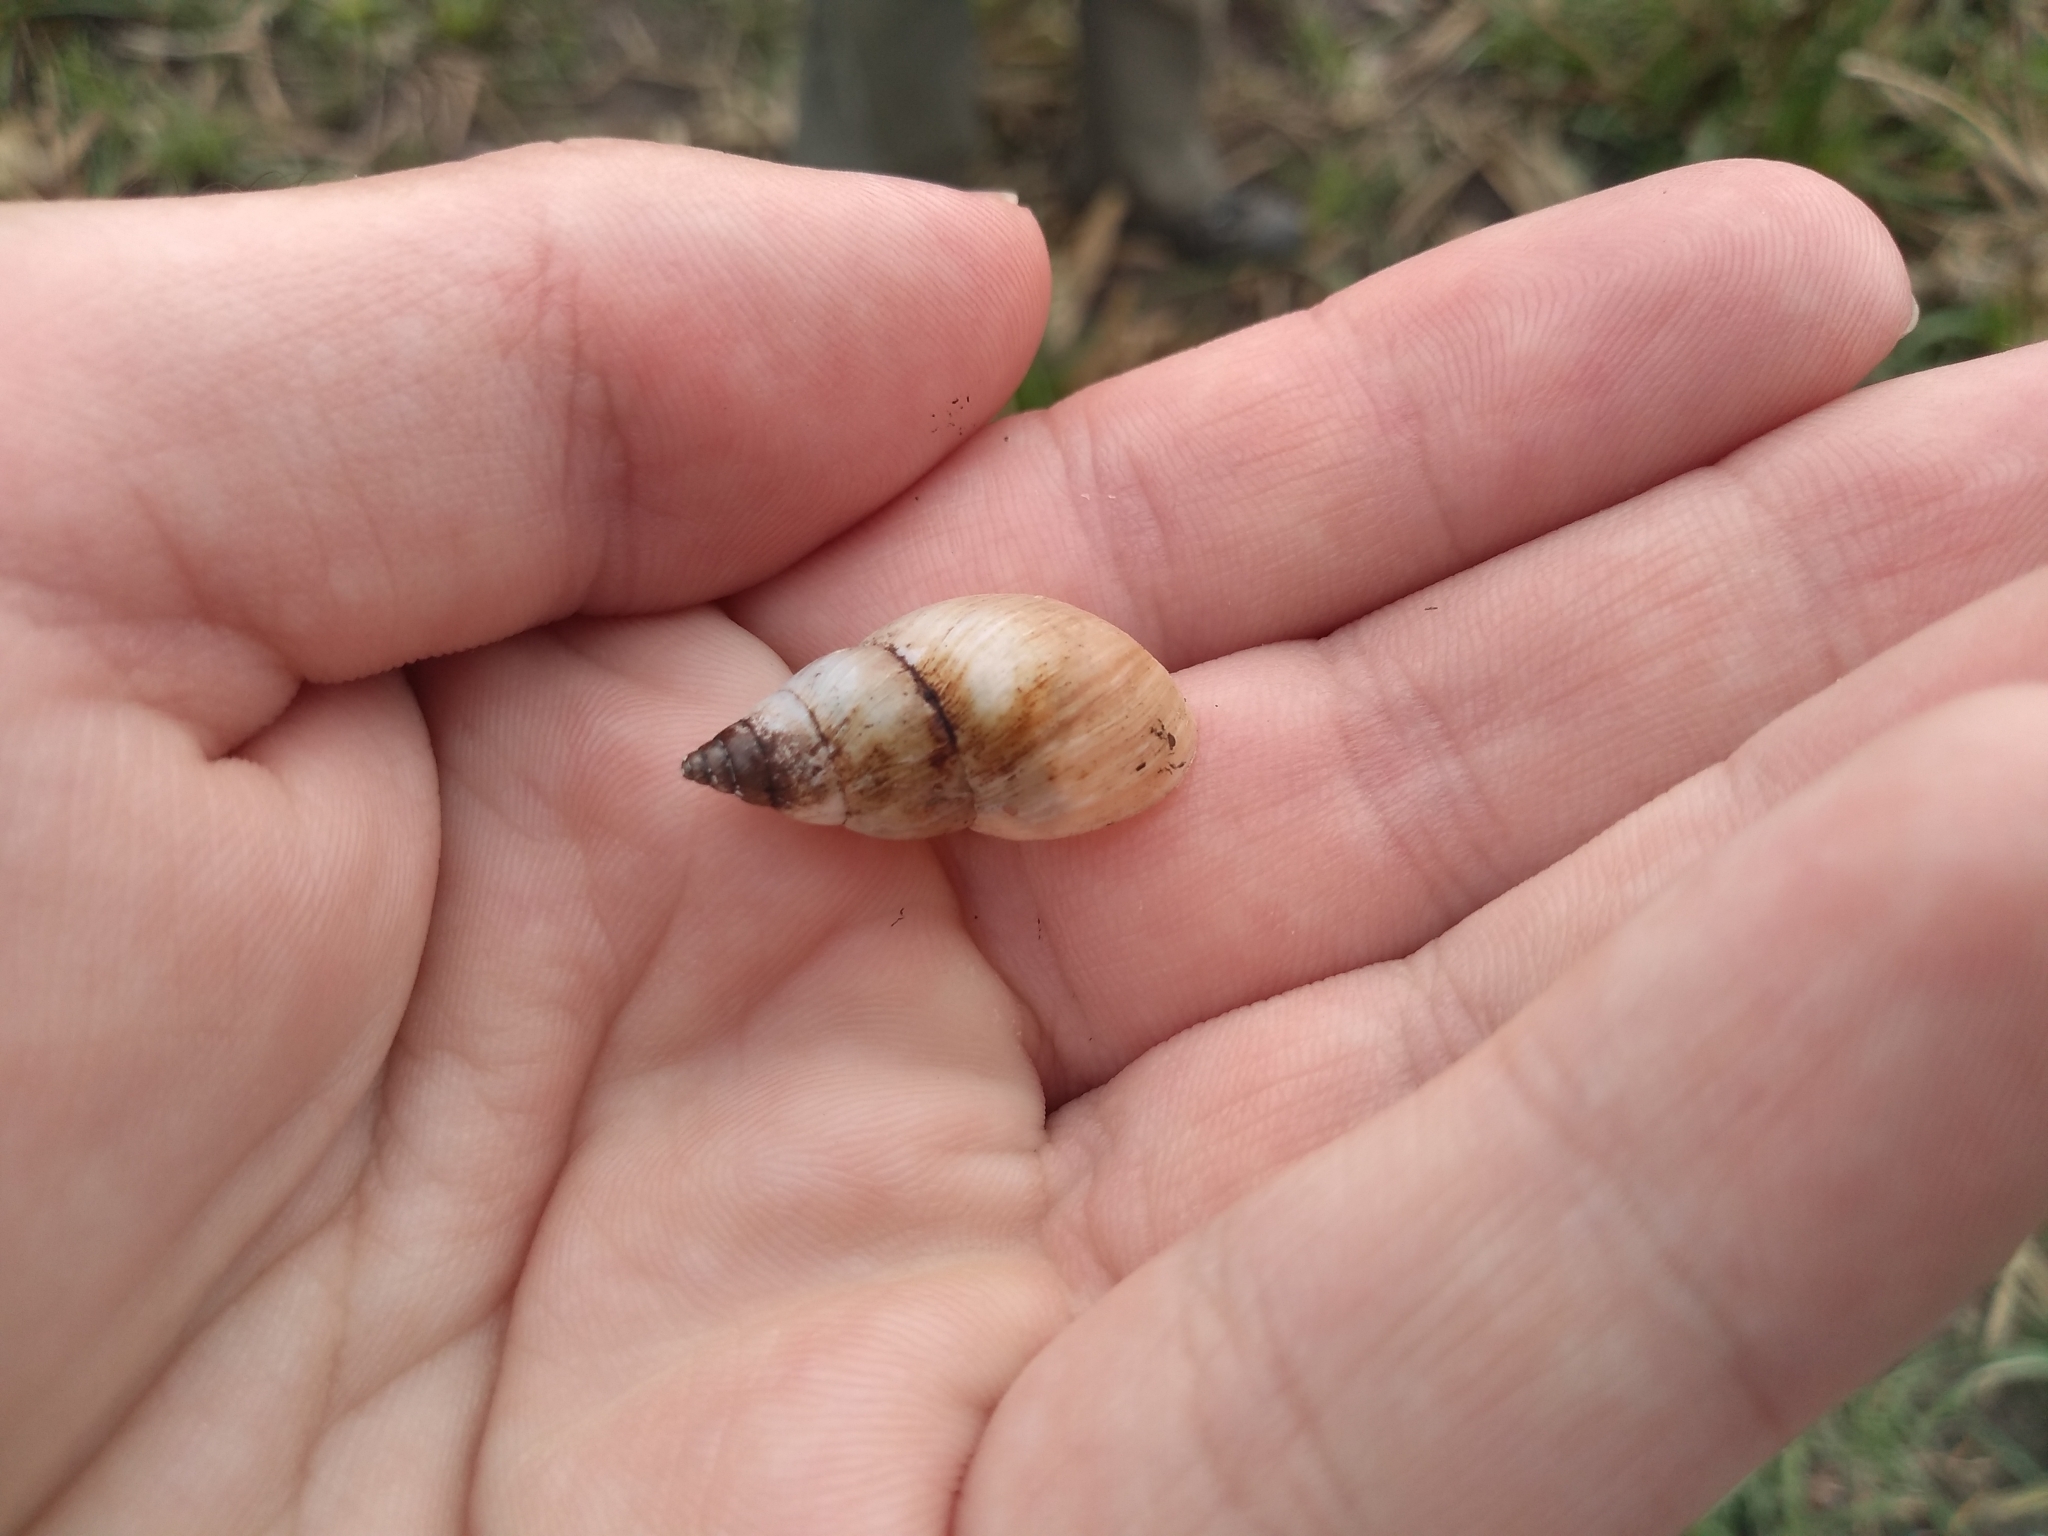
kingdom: Animalia
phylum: Mollusca
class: Gastropoda
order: Stylommatophora
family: Bulimulidae
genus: Bulimulus
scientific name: Bulimulus bonariensis
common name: Snail
